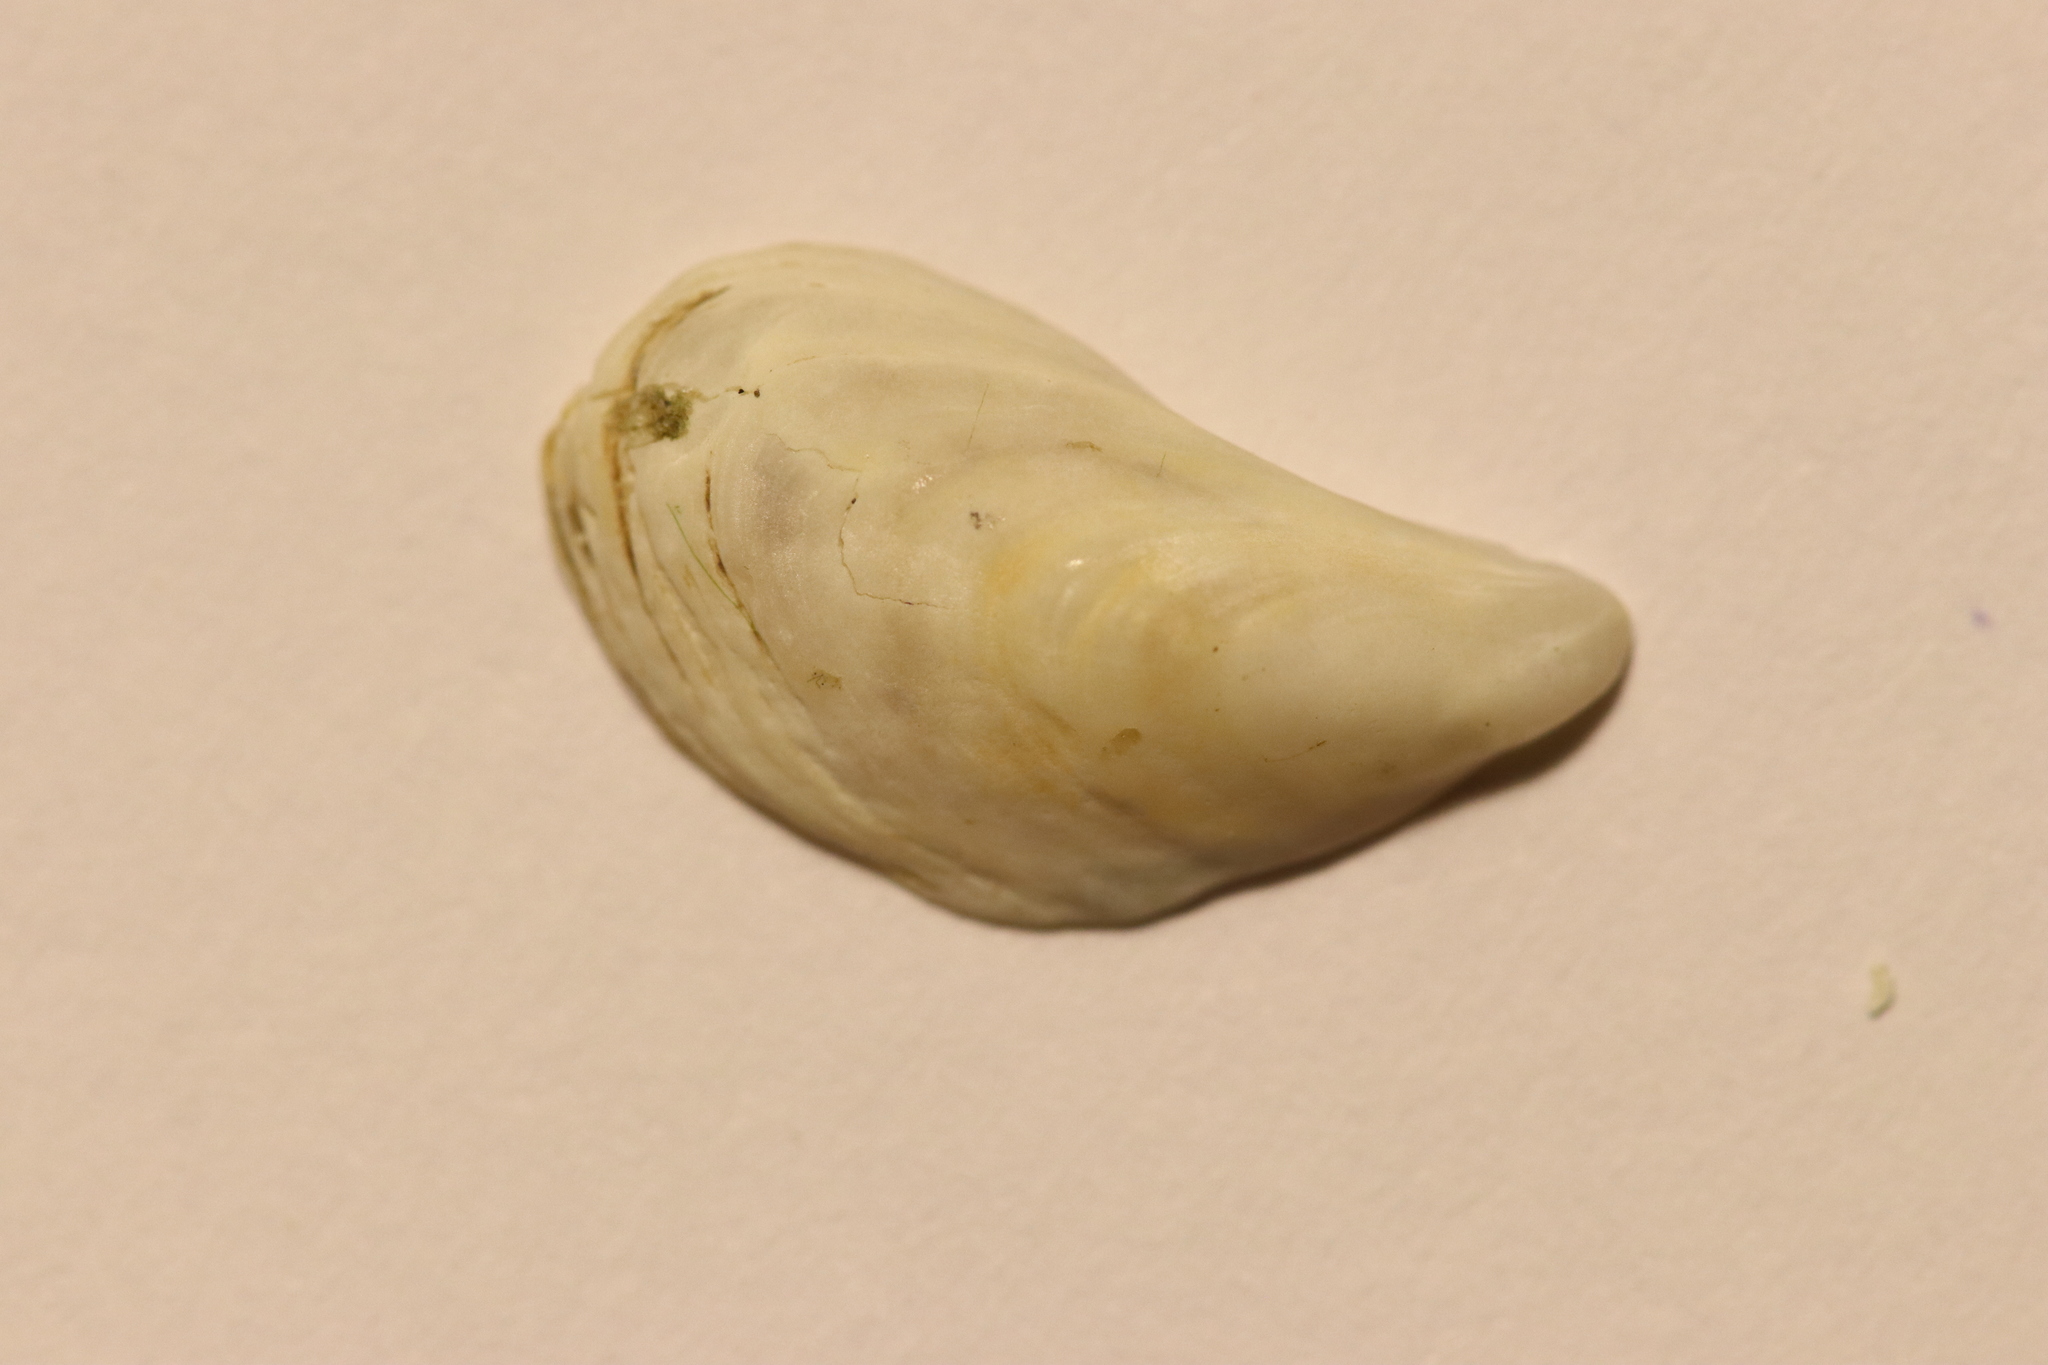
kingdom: Animalia
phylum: Mollusca
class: Bivalvia
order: Myida
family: Dreissenidae
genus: Dreissena
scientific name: Dreissena bugensis
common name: Quagga mussel
